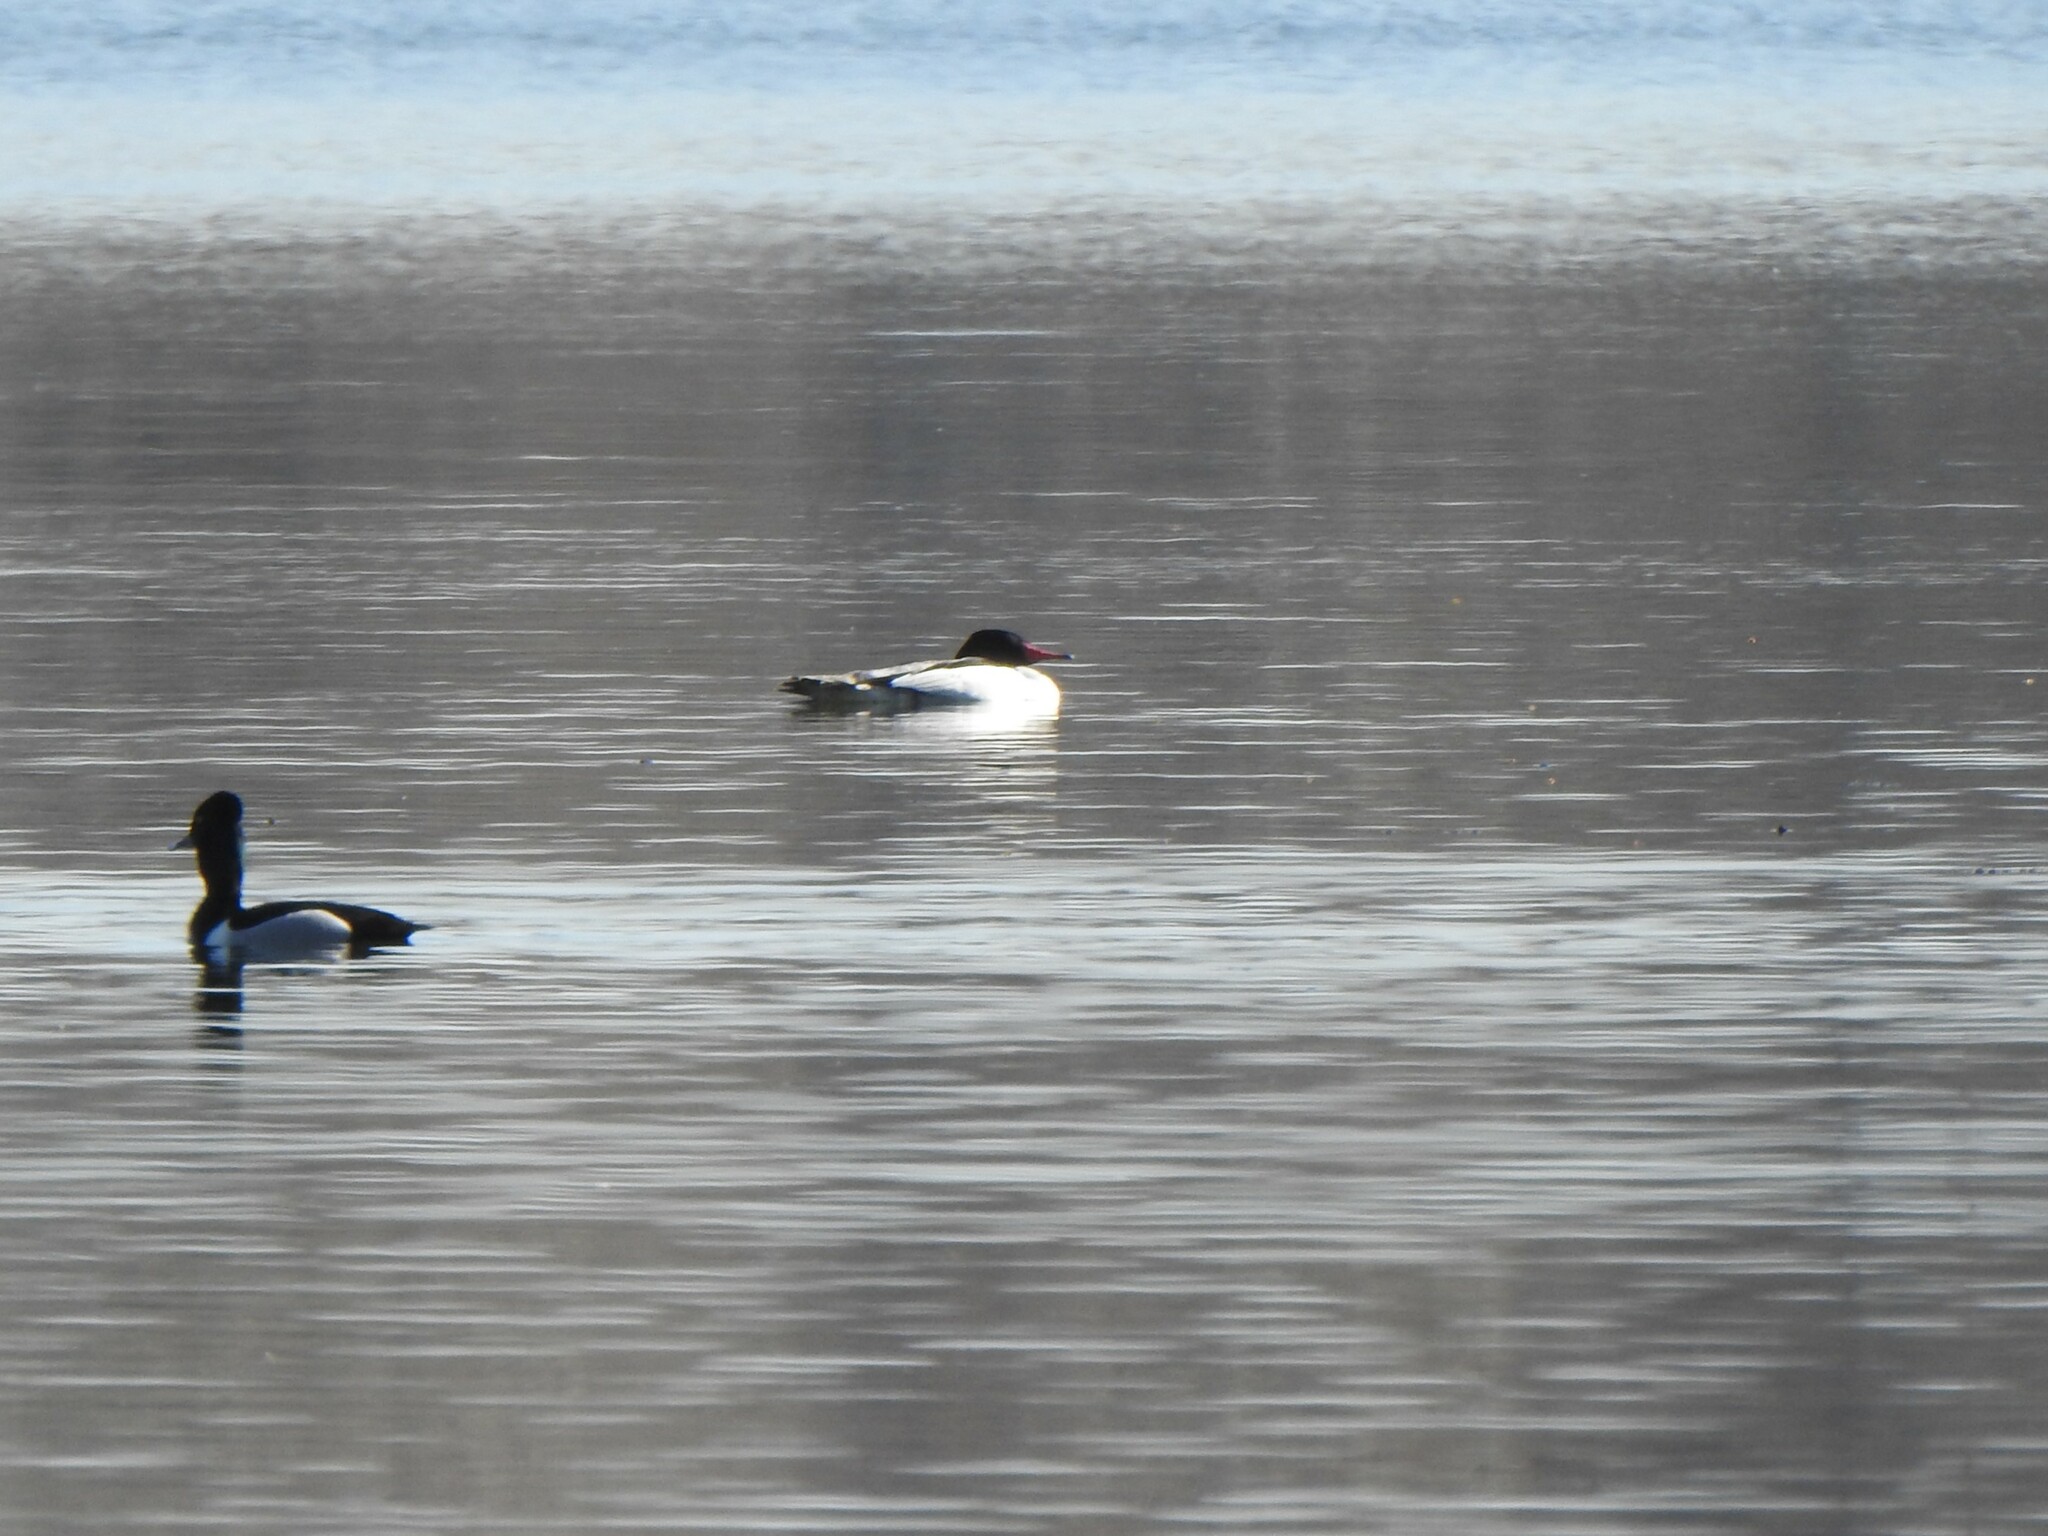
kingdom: Animalia
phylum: Chordata
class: Aves
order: Anseriformes
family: Anatidae
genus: Mergus
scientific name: Mergus merganser
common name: Common merganser
